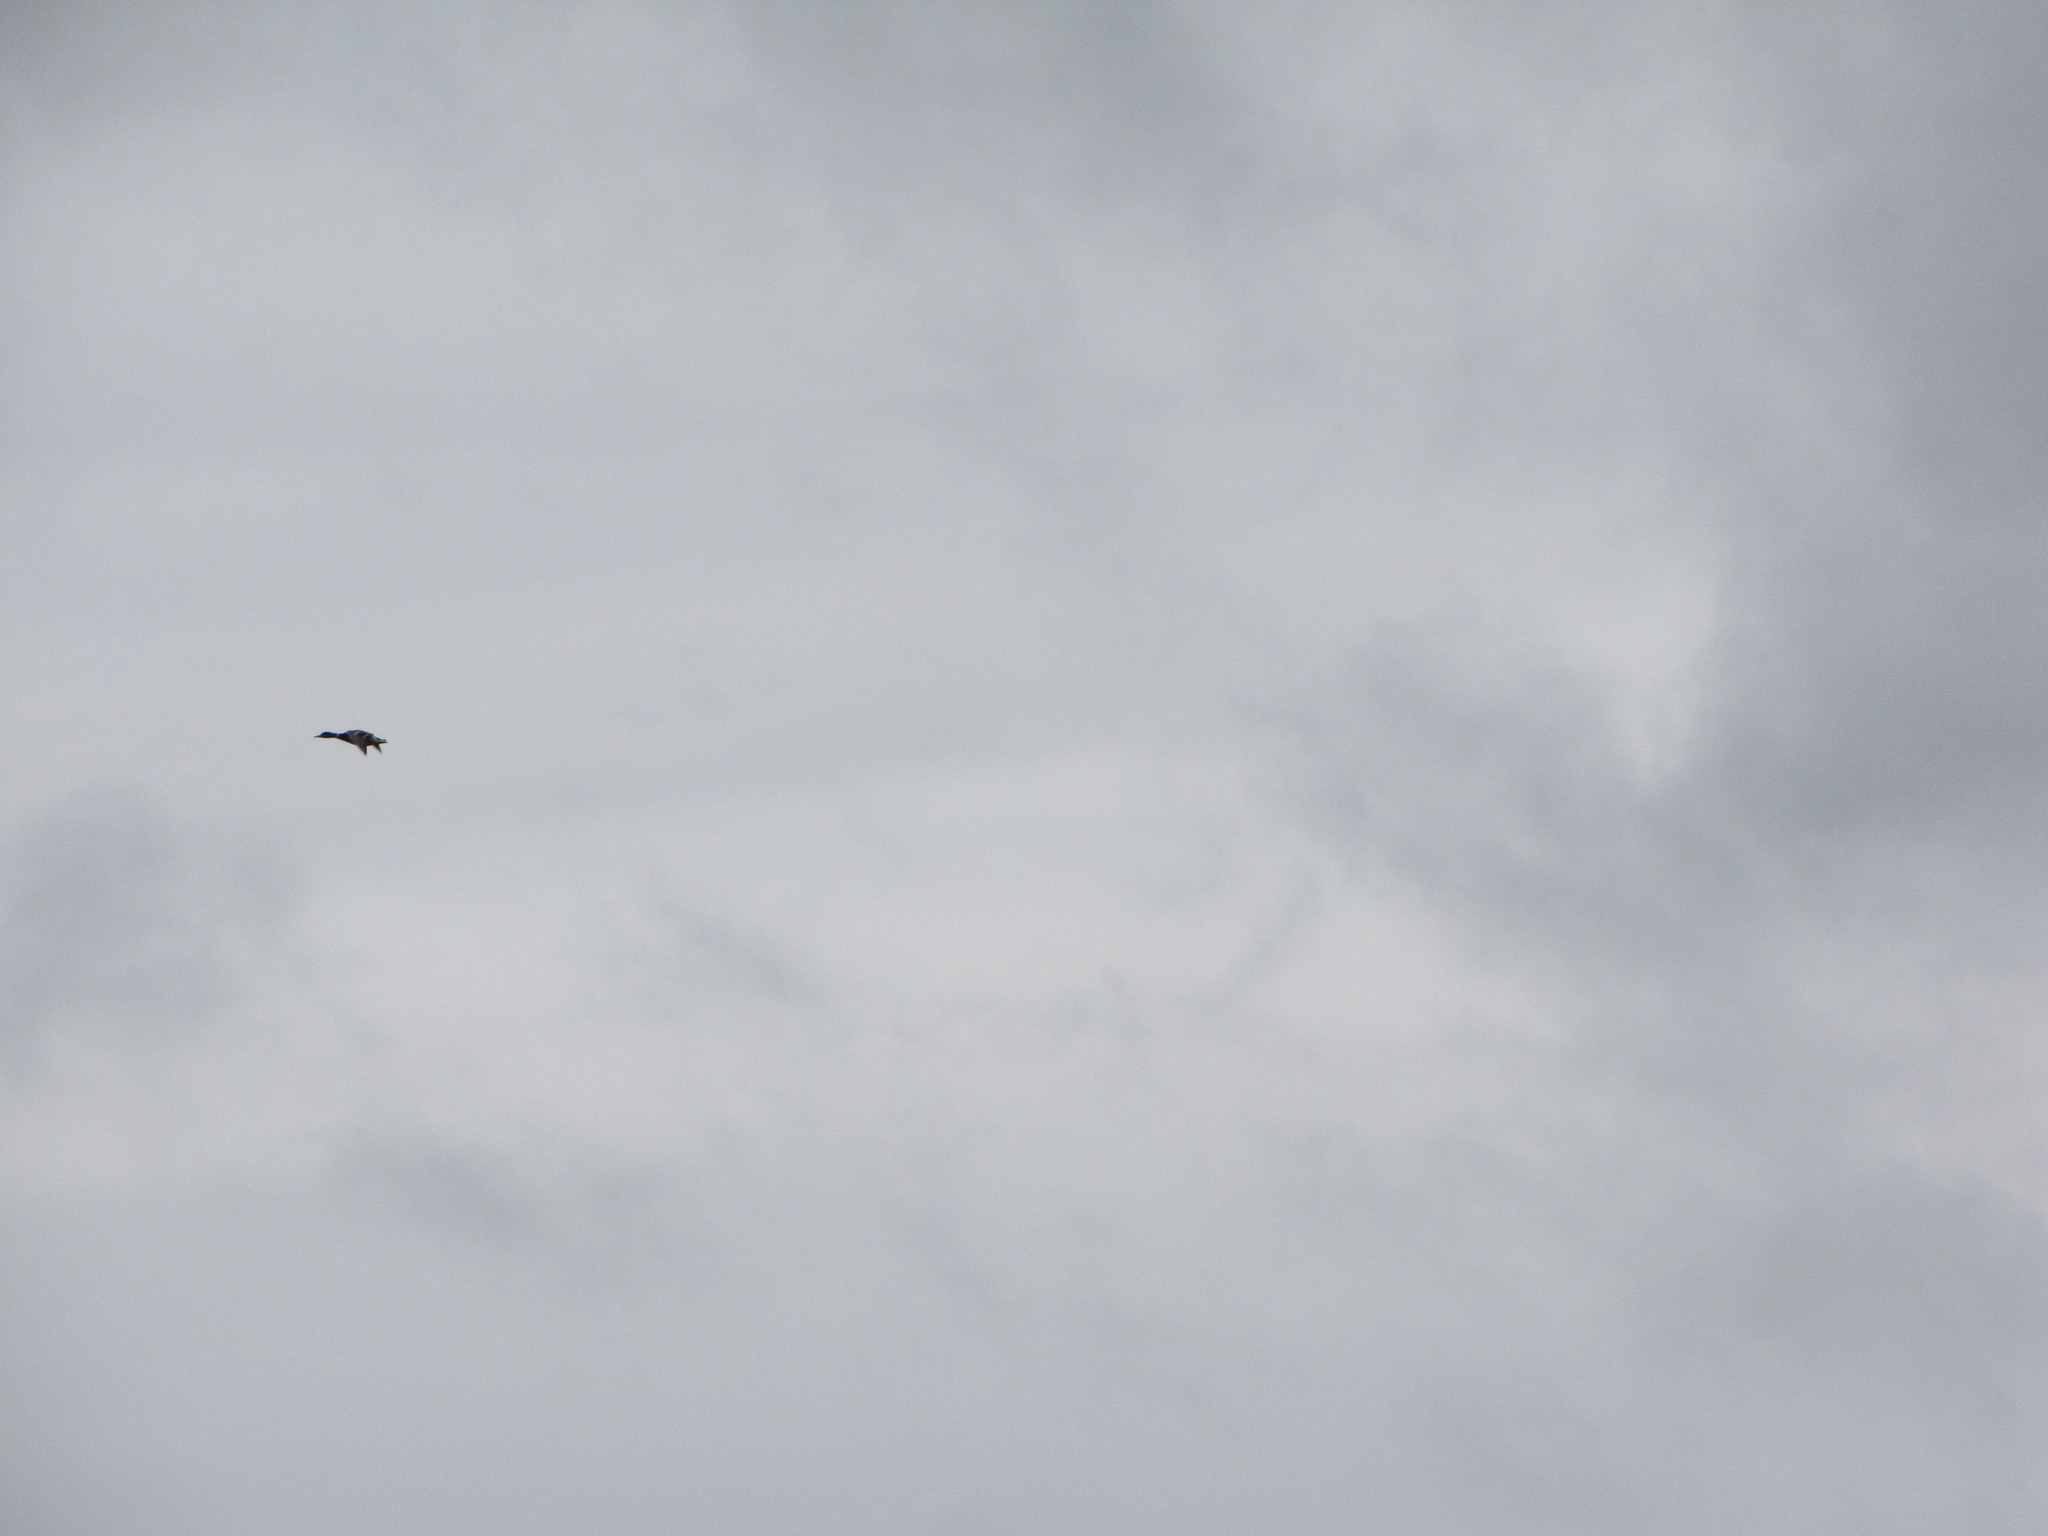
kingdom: Animalia
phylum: Chordata
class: Aves
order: Anseriformes
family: Anatidae
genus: Anas
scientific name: Anas platyrhynchos
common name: Mallard
